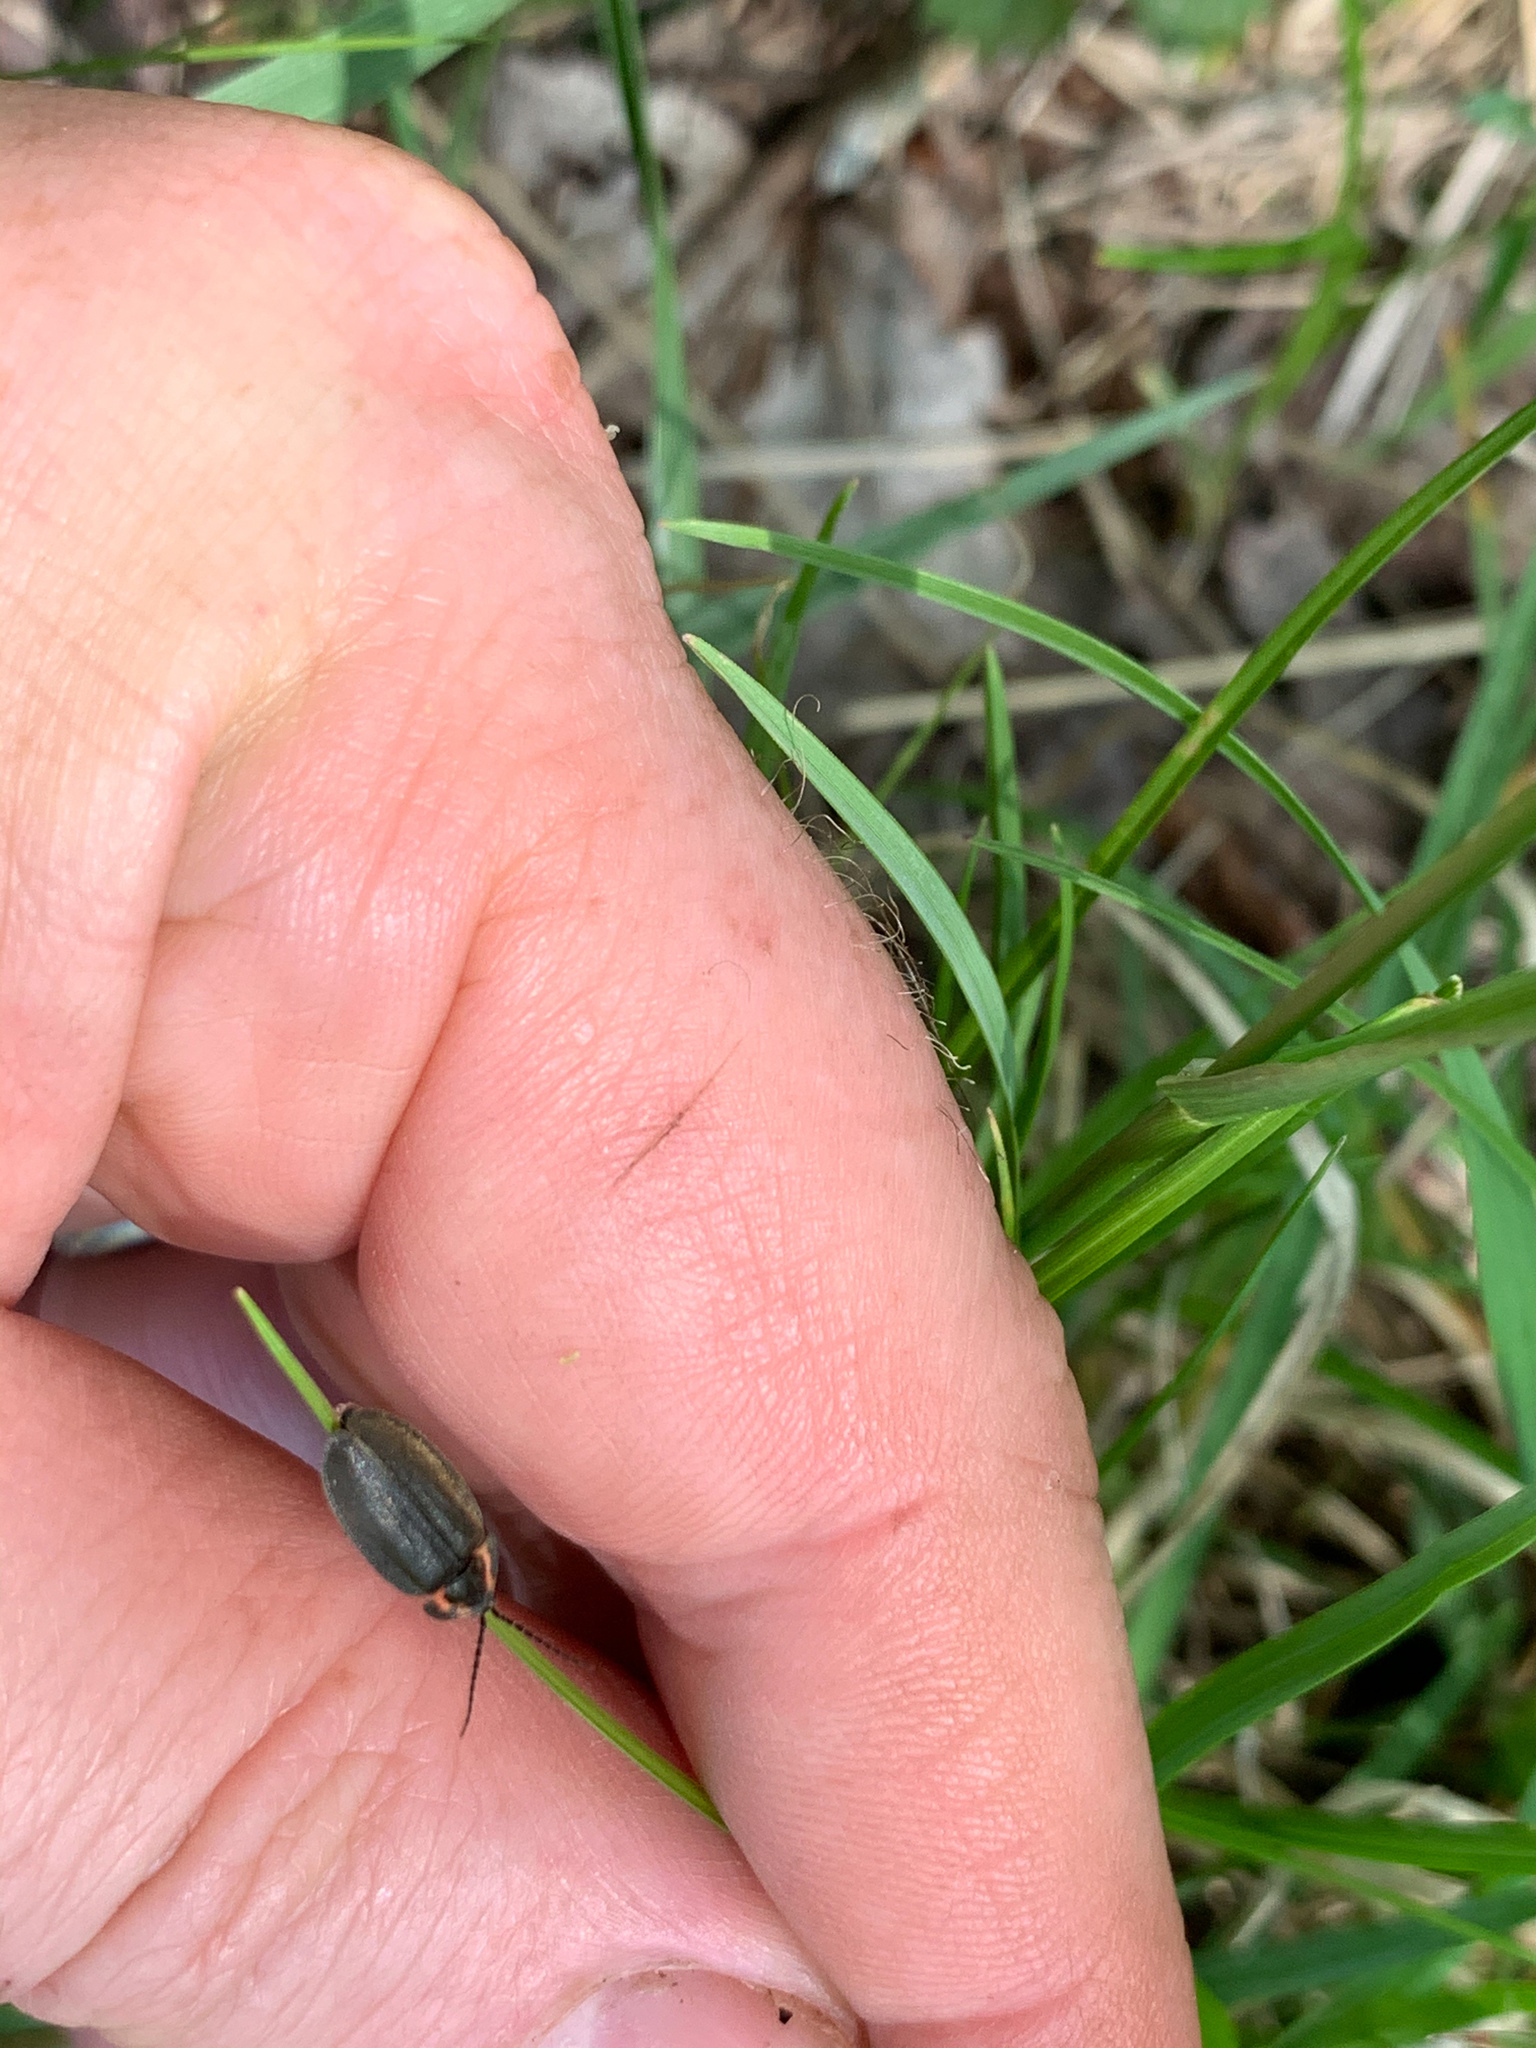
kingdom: Animalia
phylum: Arthropoda
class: Insecta
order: Coleoptera
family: Lampyridae
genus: Photinus
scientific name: Photinus corrusca
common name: Winter firefly
